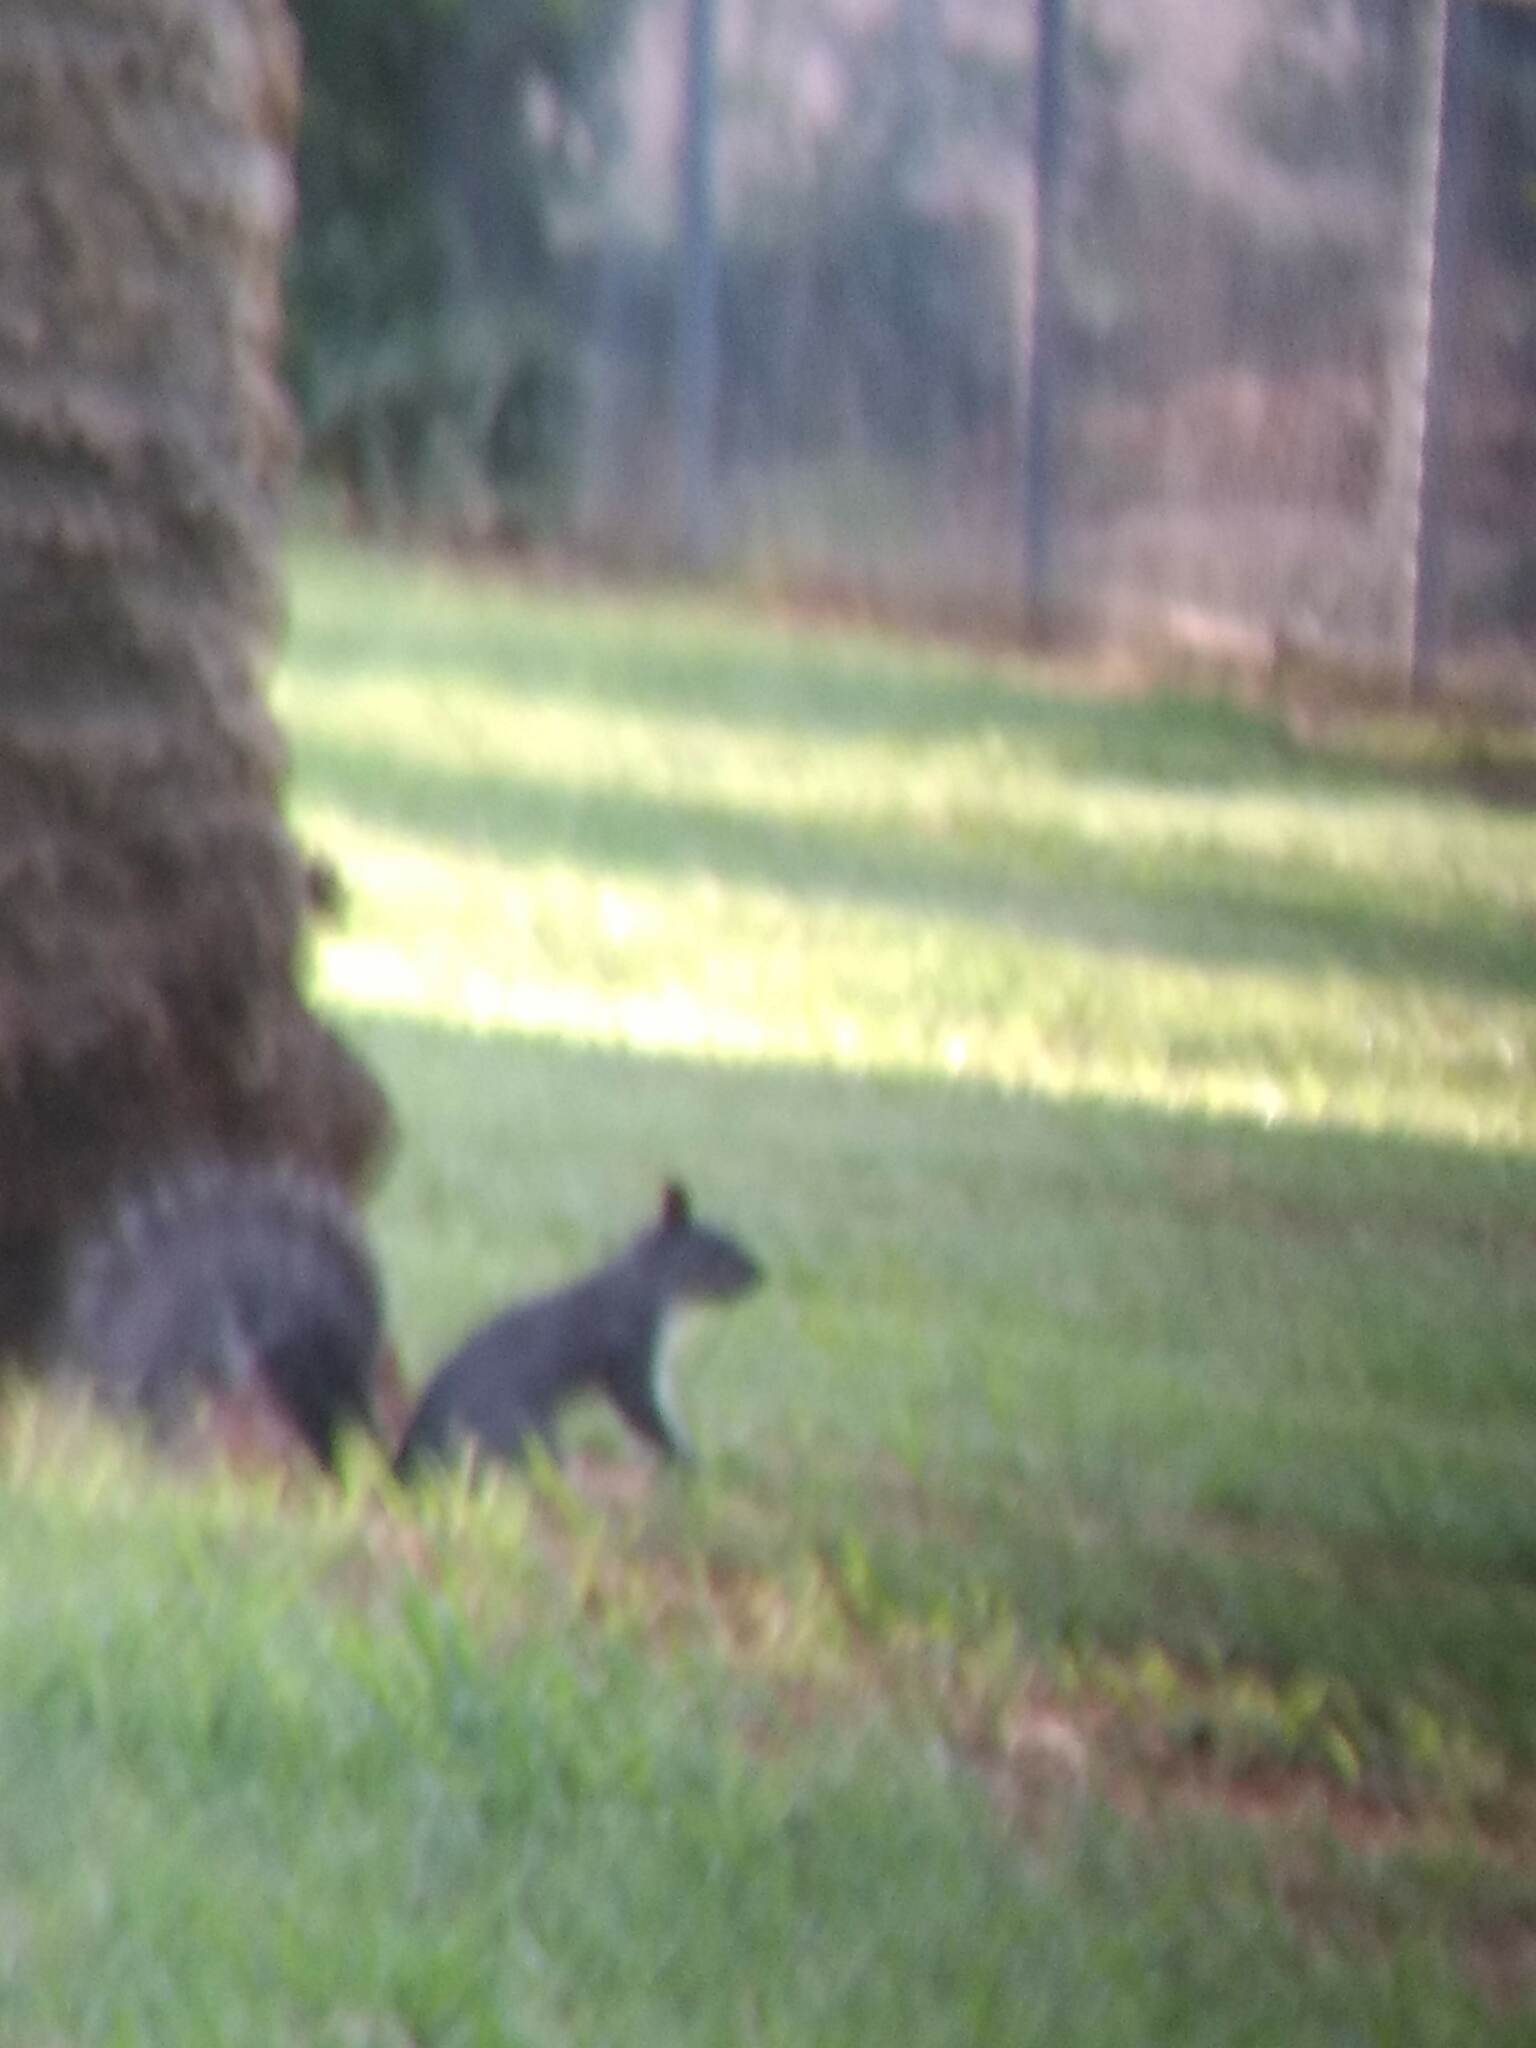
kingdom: Animalia
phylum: Chordata
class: Mammalia
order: Rodentia
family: Sciuridae
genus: Sciurus
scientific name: Sciurus griseus
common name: Western gray squirrel
